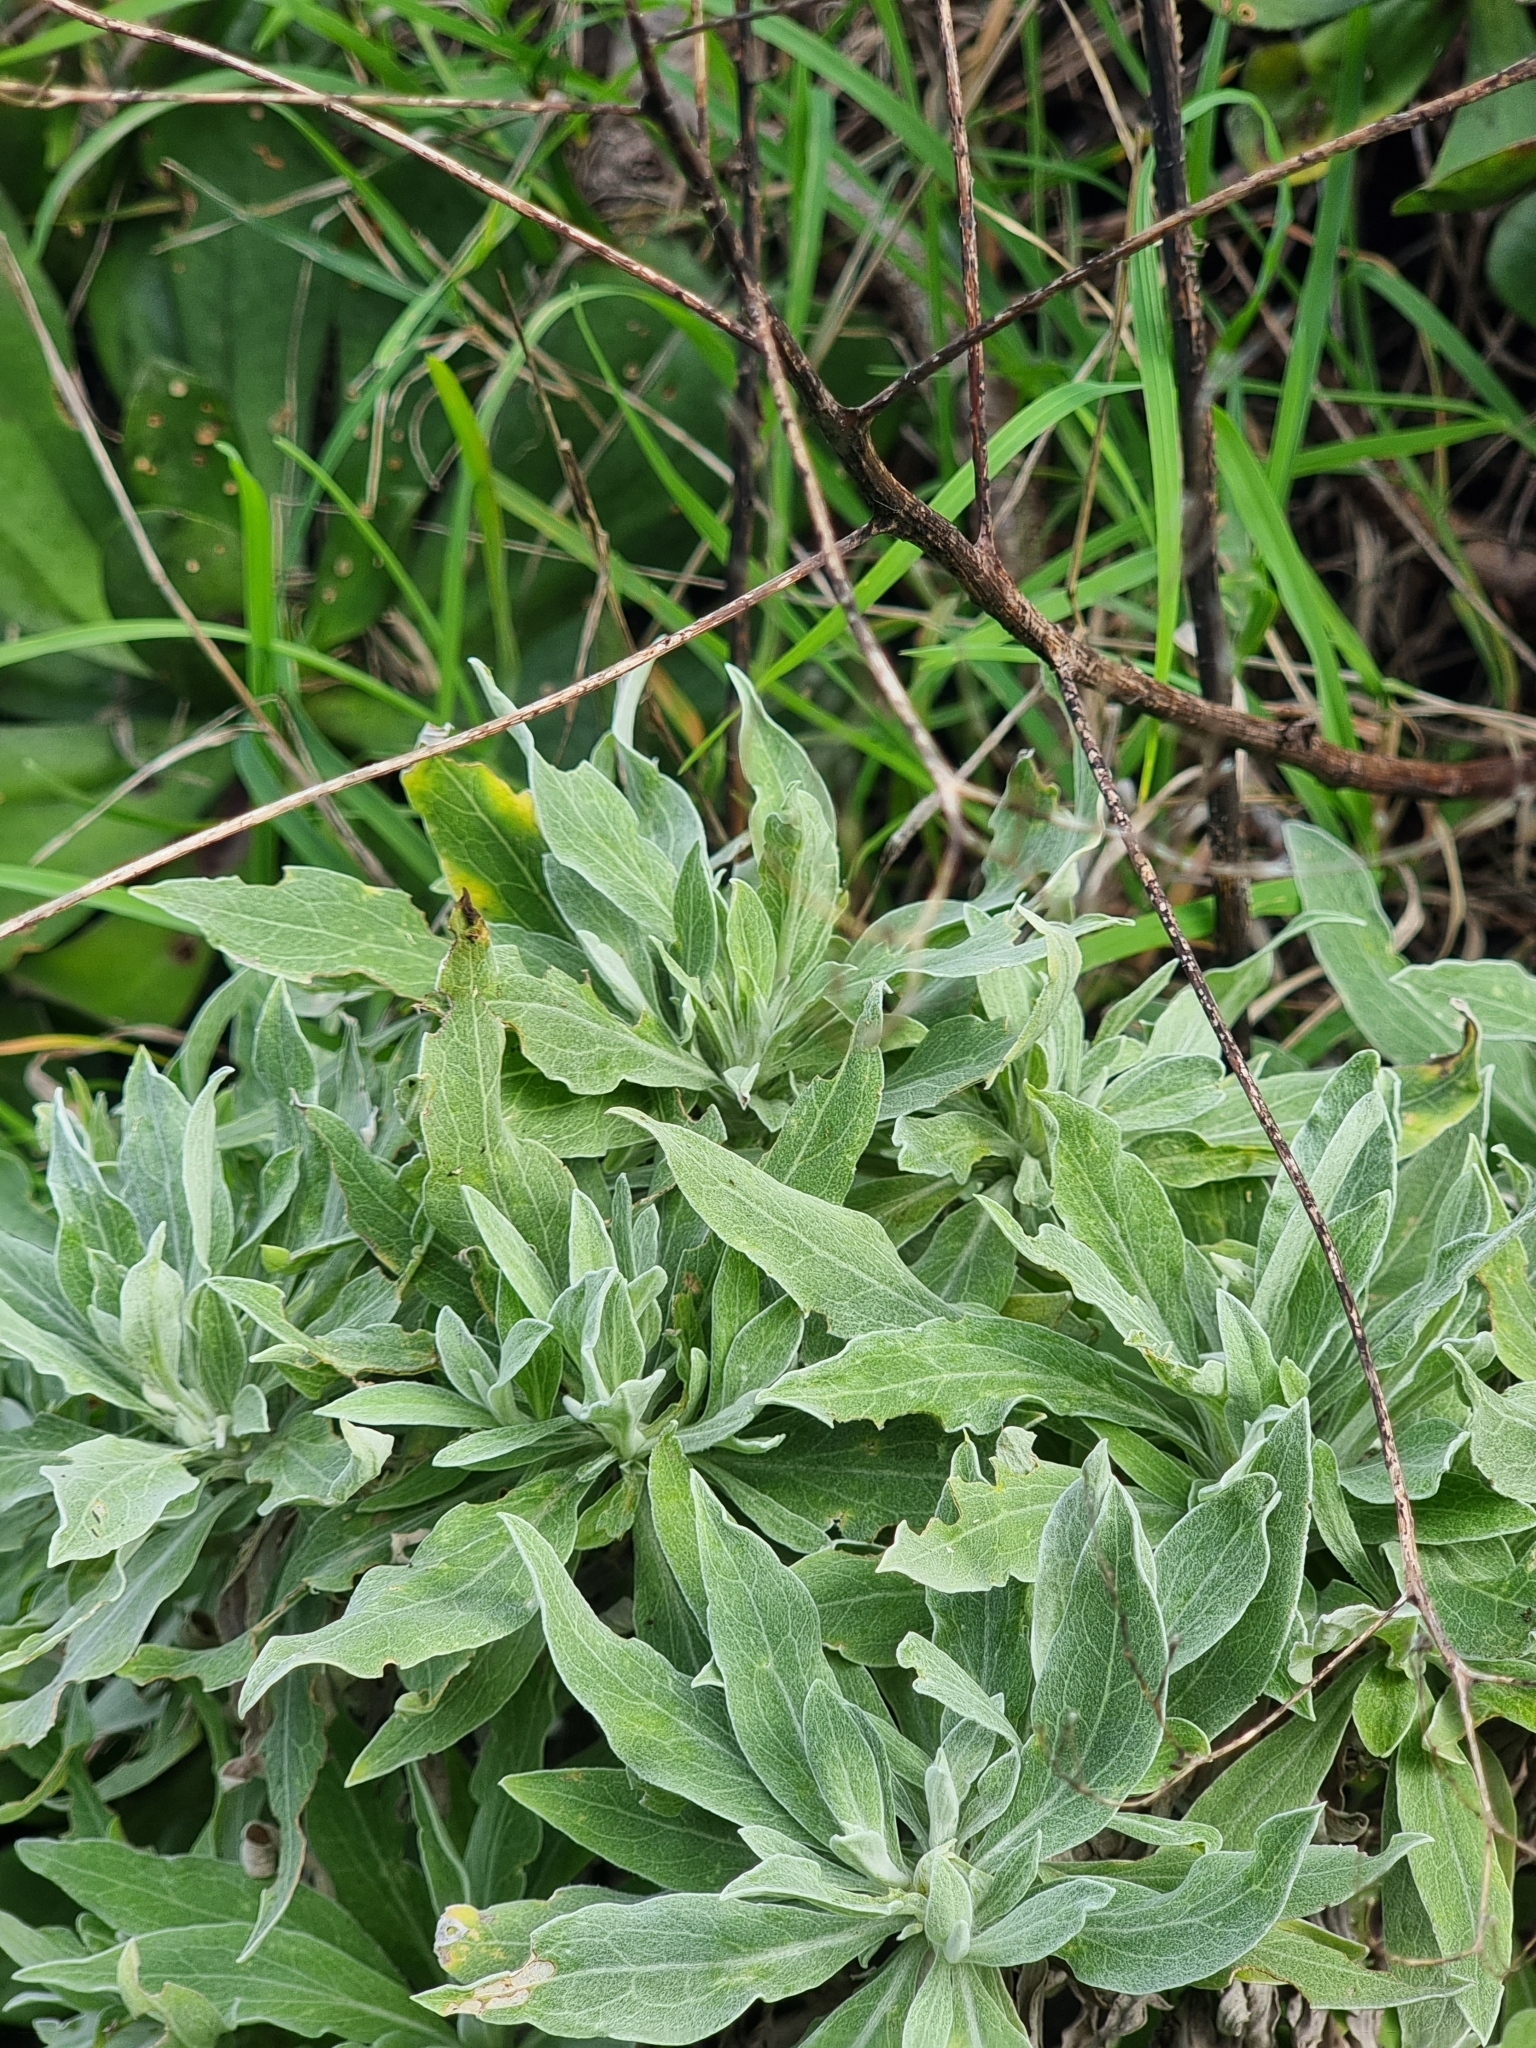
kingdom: Plantae
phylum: Tracheophyta
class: Magnoliopsida
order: Asterales
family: Asteraceae
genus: Helichrysum
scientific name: Helichrysum melaleucum
